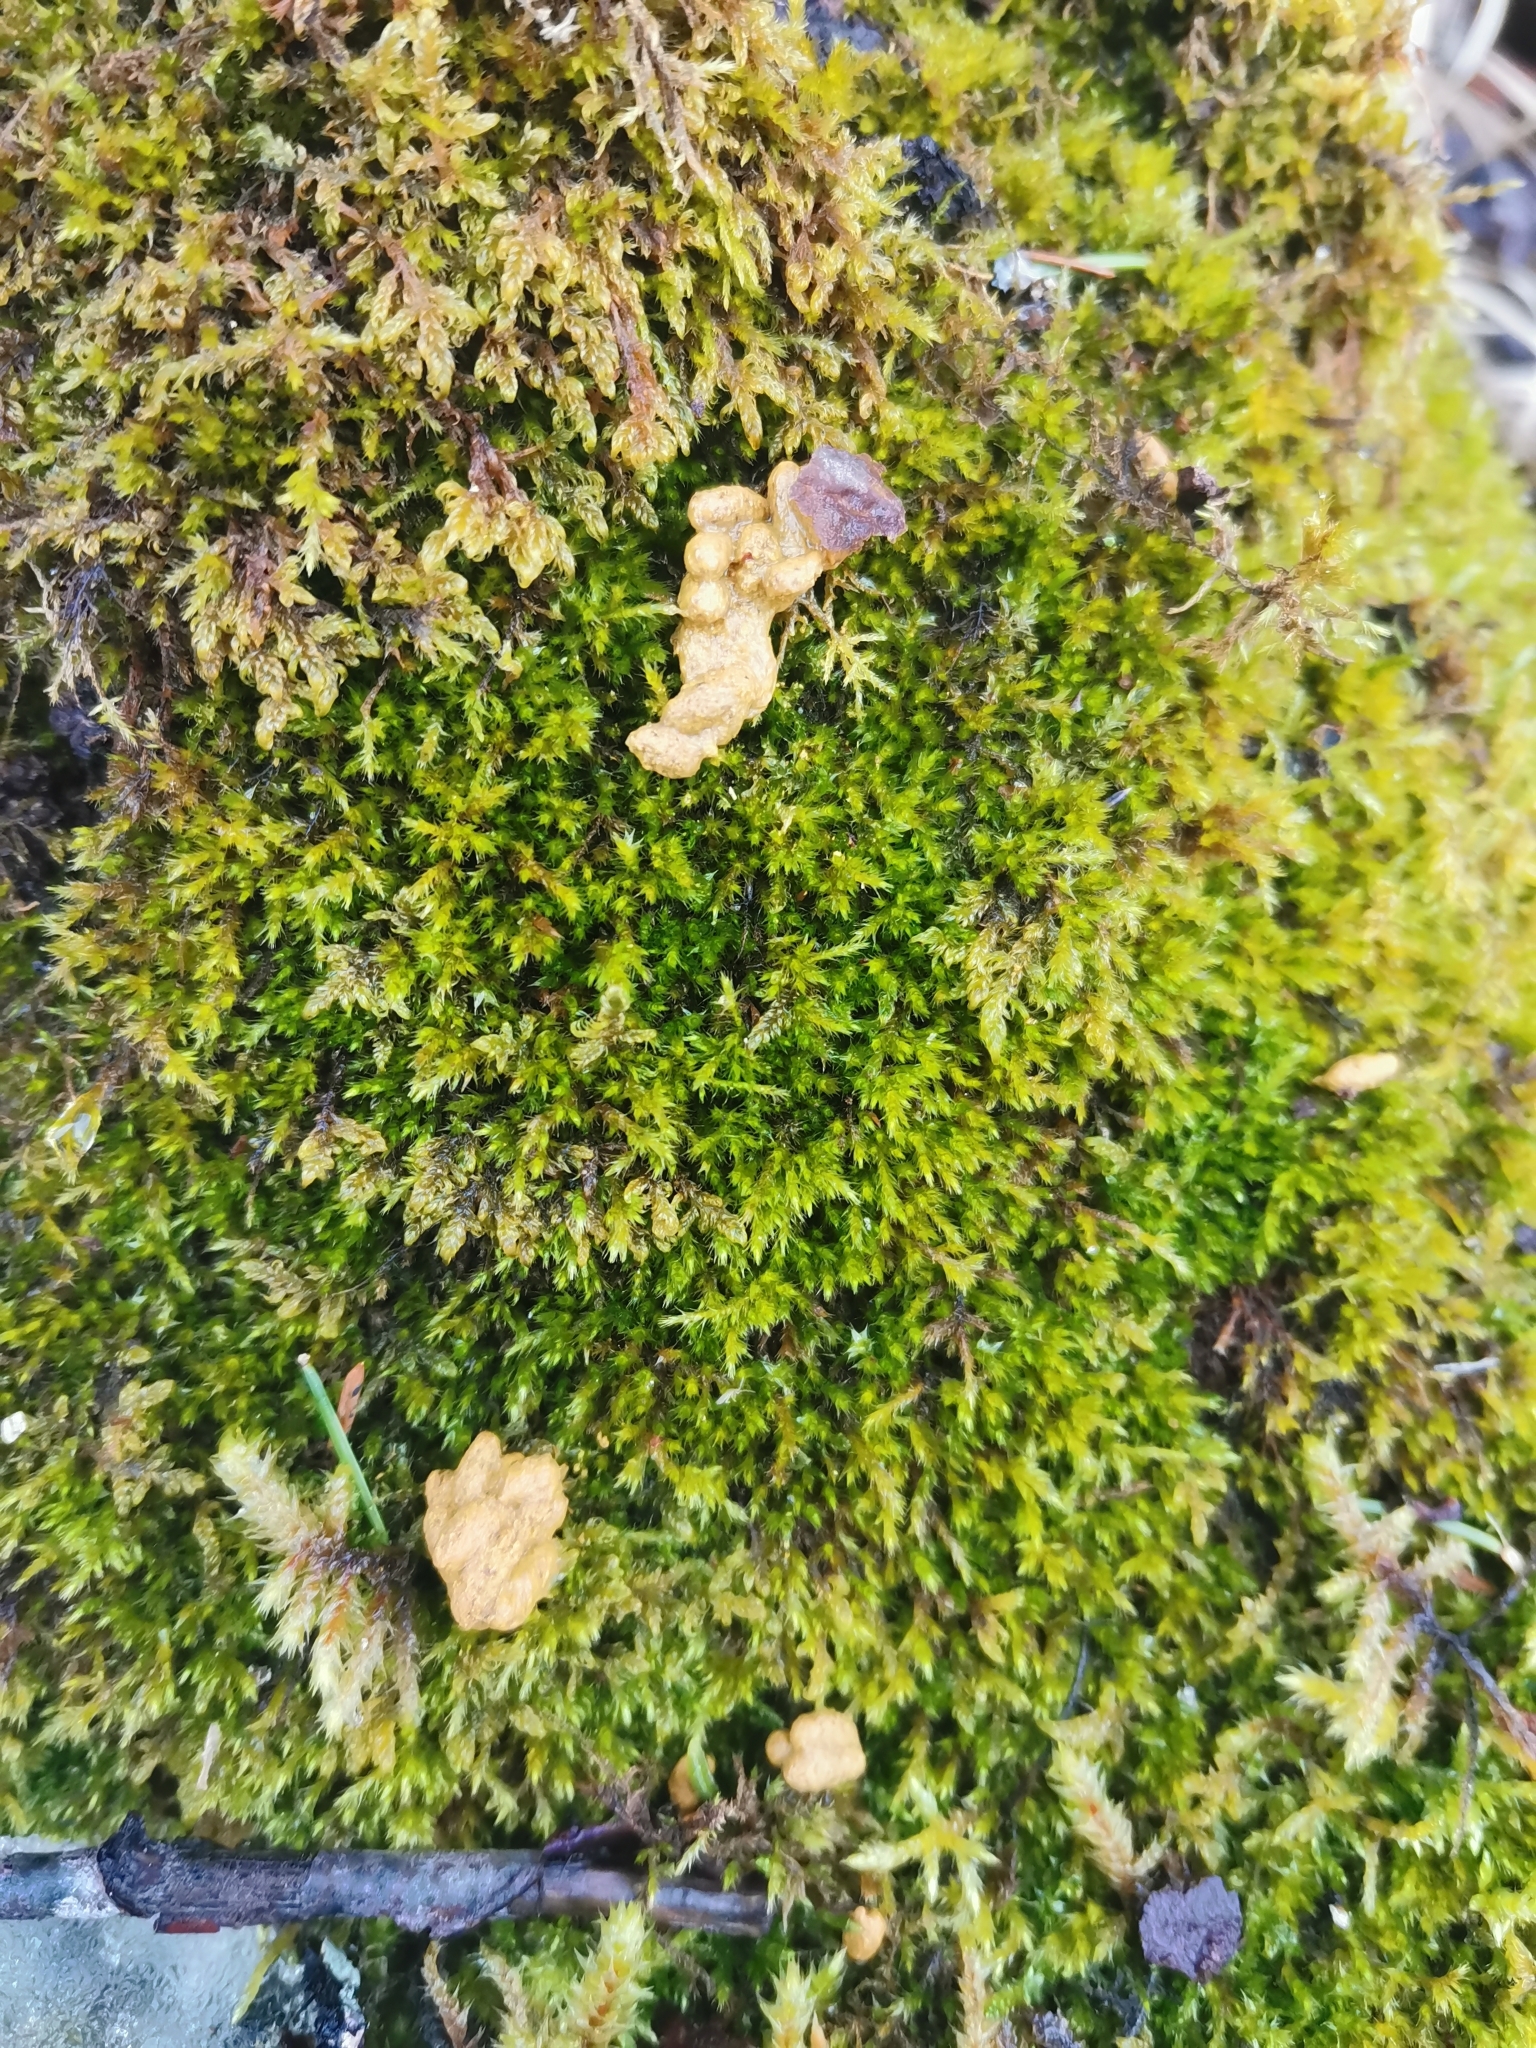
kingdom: Animalia
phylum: Chordata
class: Mammalia
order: Rodentia
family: Sciuridae
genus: Pteromys
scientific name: Pteromys volans
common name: Siberian flying squirrel
